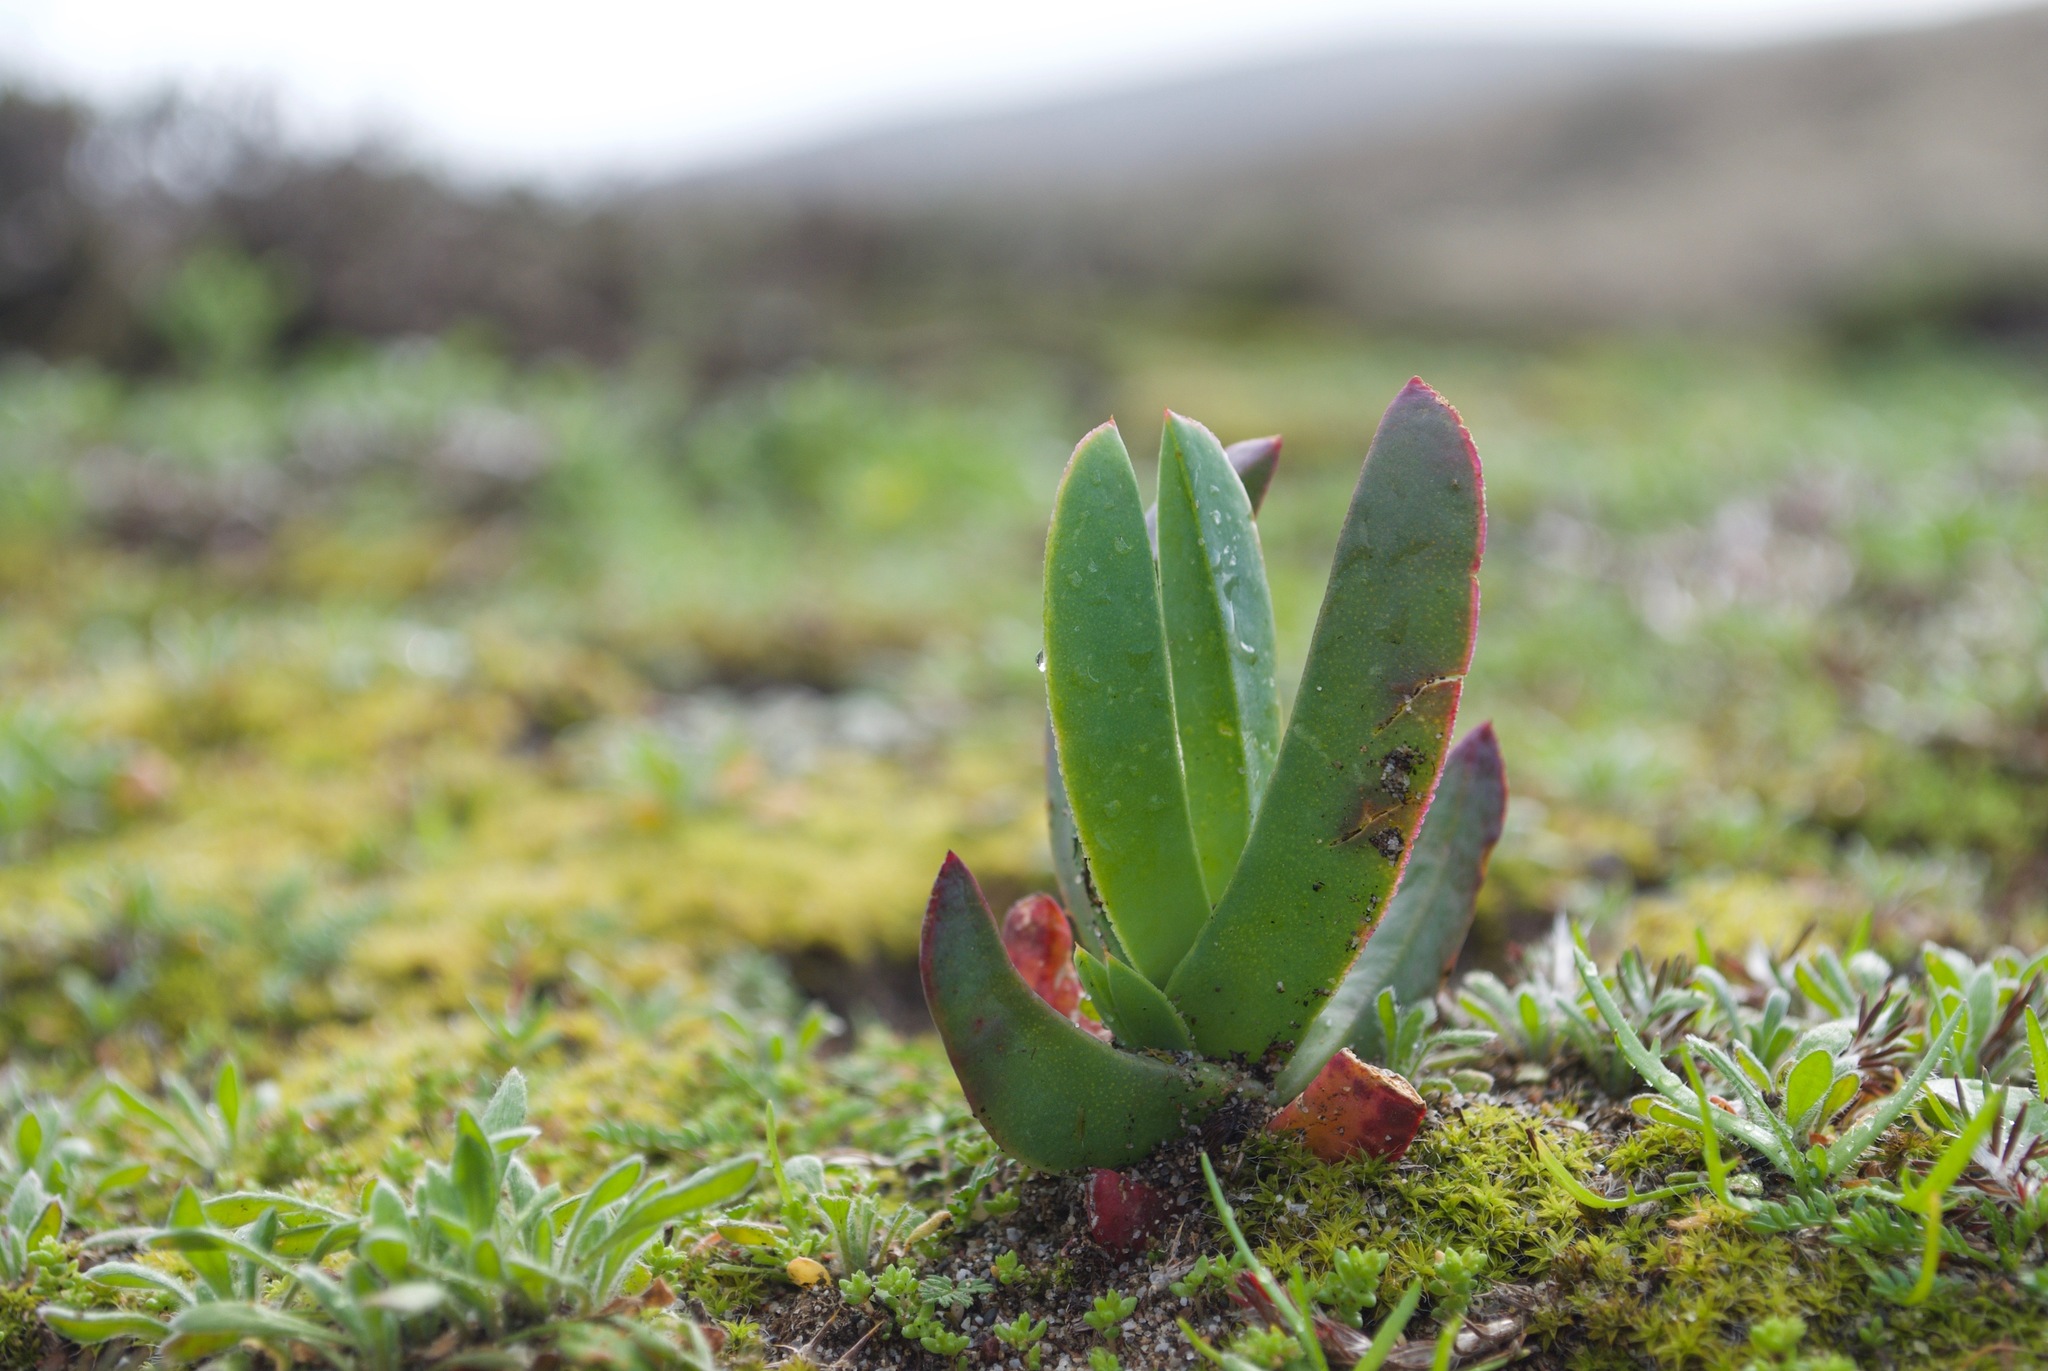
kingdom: Plantae
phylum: Tracheophyta
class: Magnoliopsida
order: Caryophyllales
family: Aizoaceae
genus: Carpobrotus
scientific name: Carpobrotus edulis
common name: Hottentot-fig
